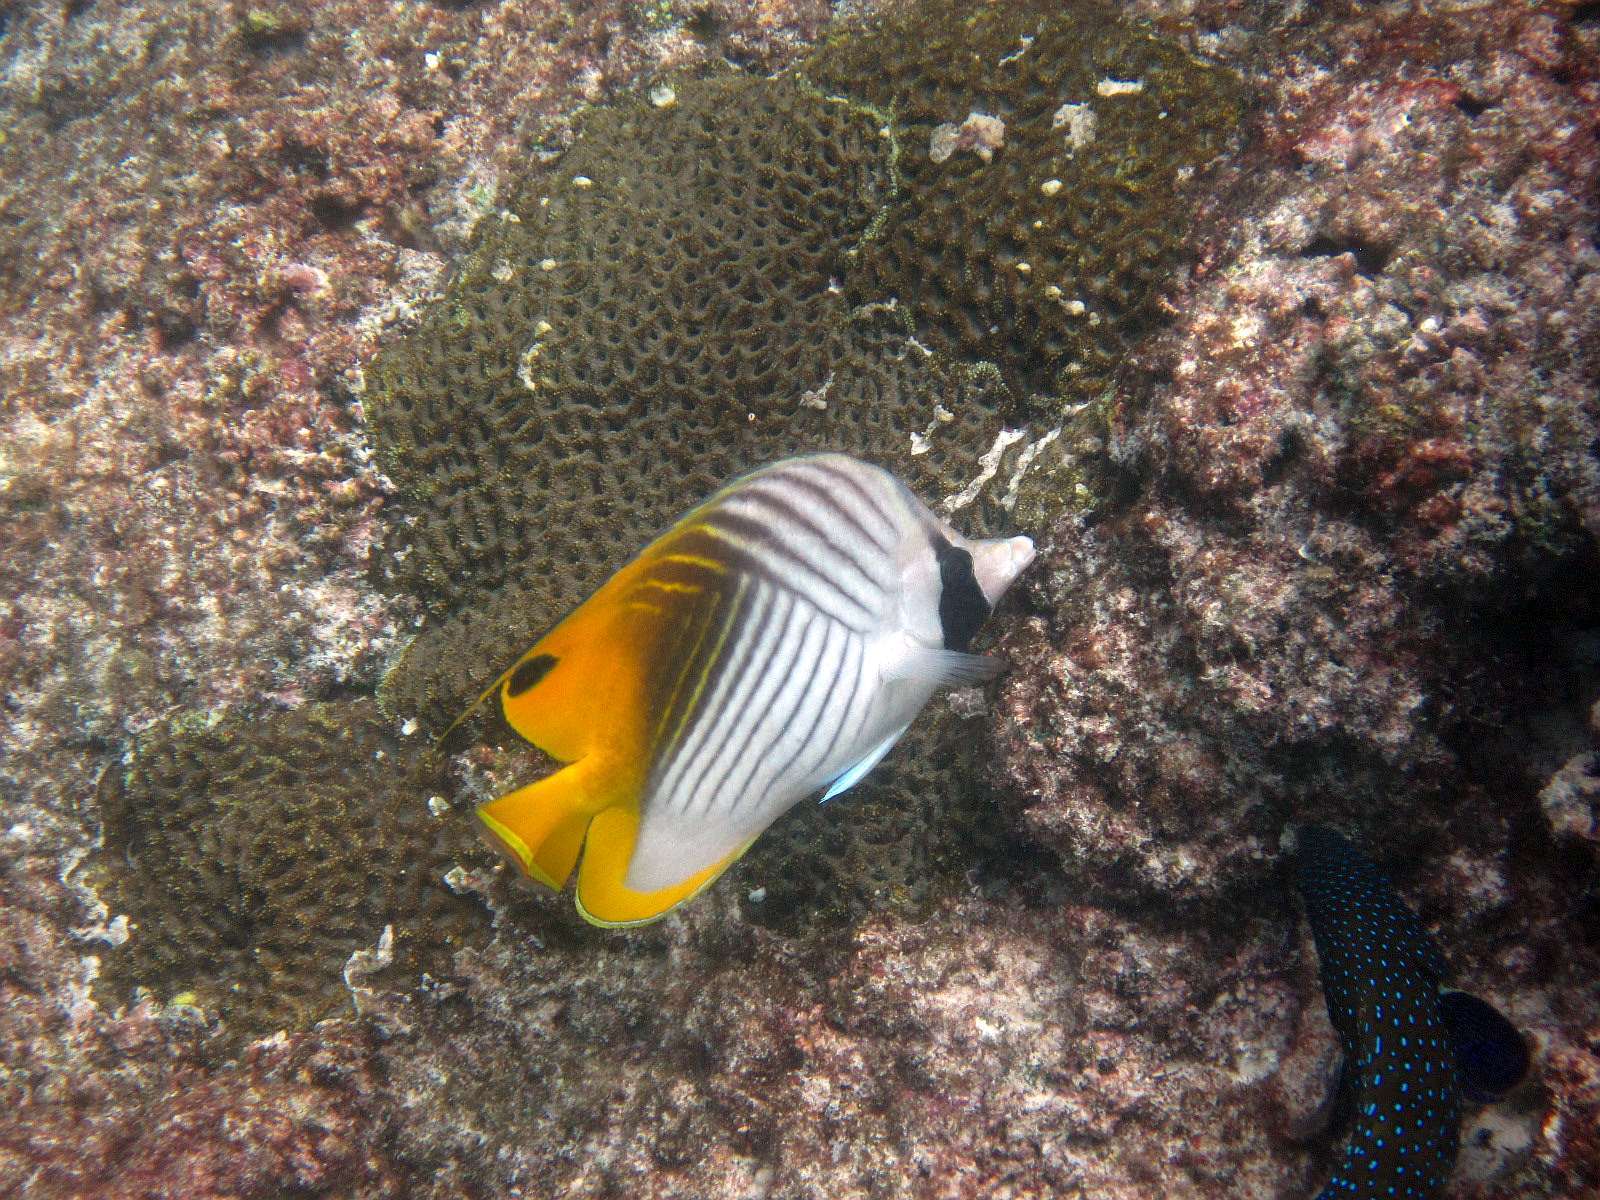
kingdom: Animalia
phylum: Chordata
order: Perciformes
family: Chaetodontidae
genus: Chaetodon
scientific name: Chaetodon auriga
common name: Threadfin butterflyfish
